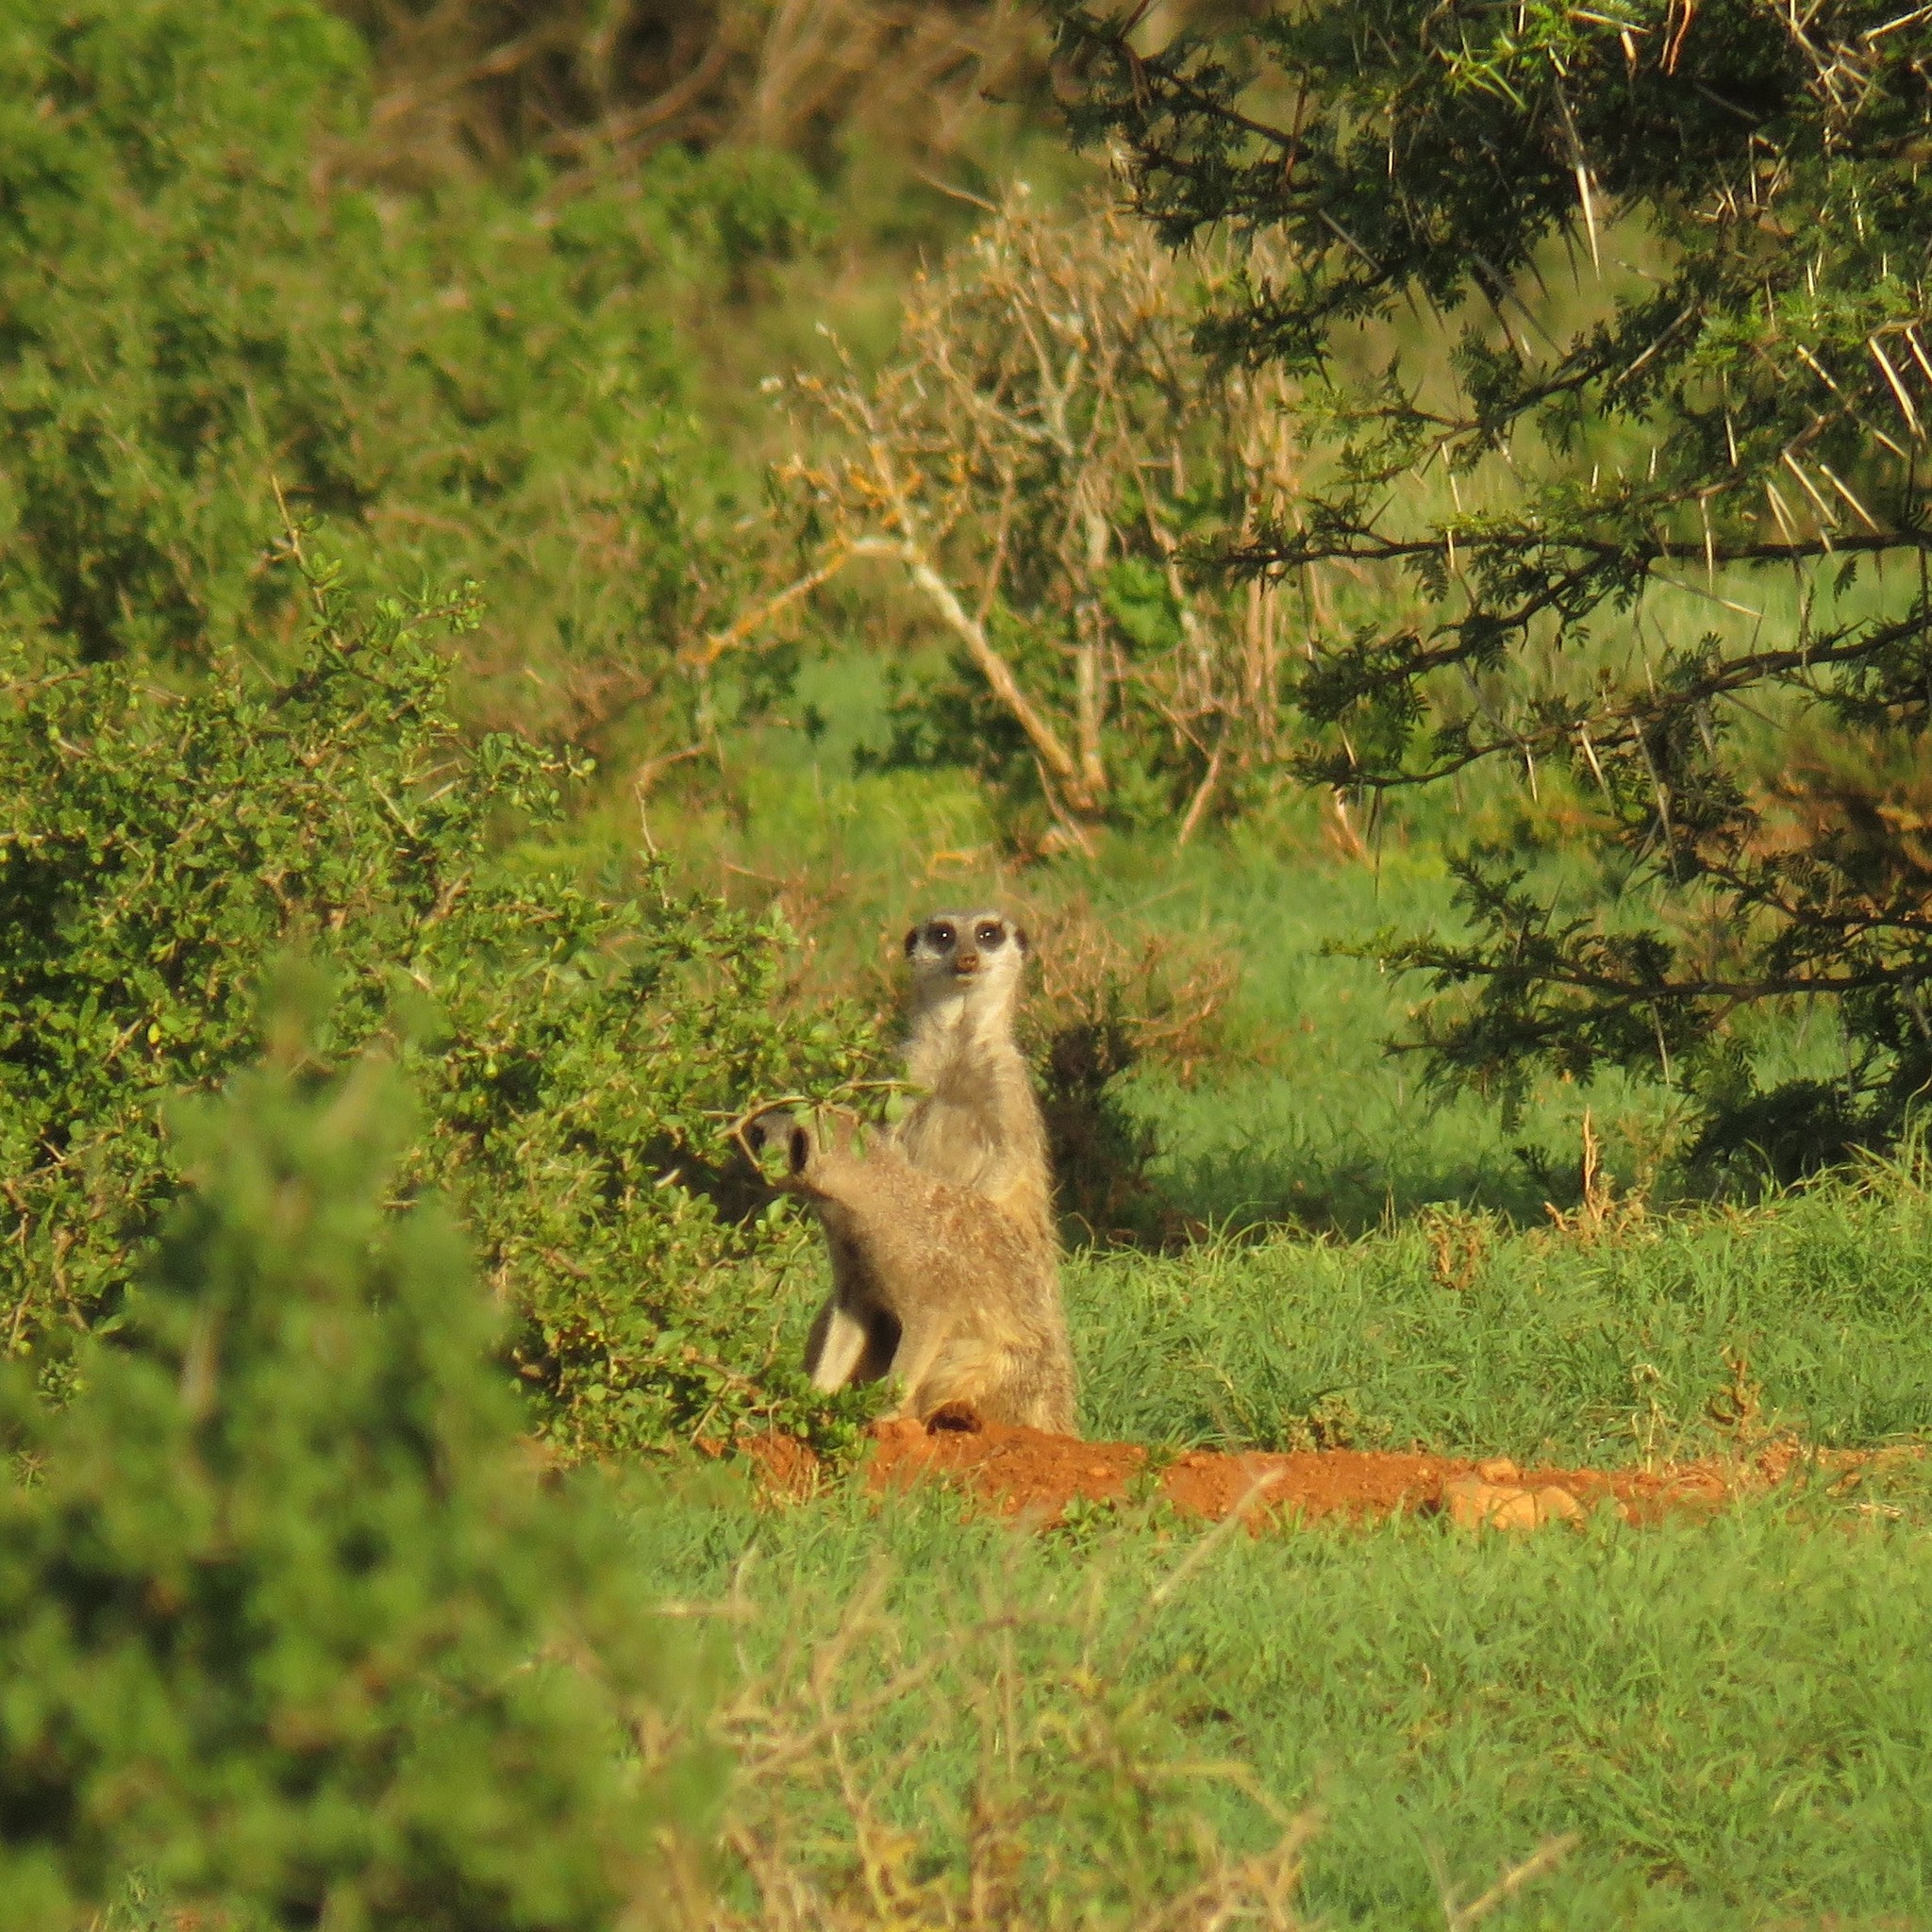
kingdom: Animalia
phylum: Chordata
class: Mammalia
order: Carnivora
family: Herpestidae
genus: Suricata
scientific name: Suricata suricatta
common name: Meerkat
